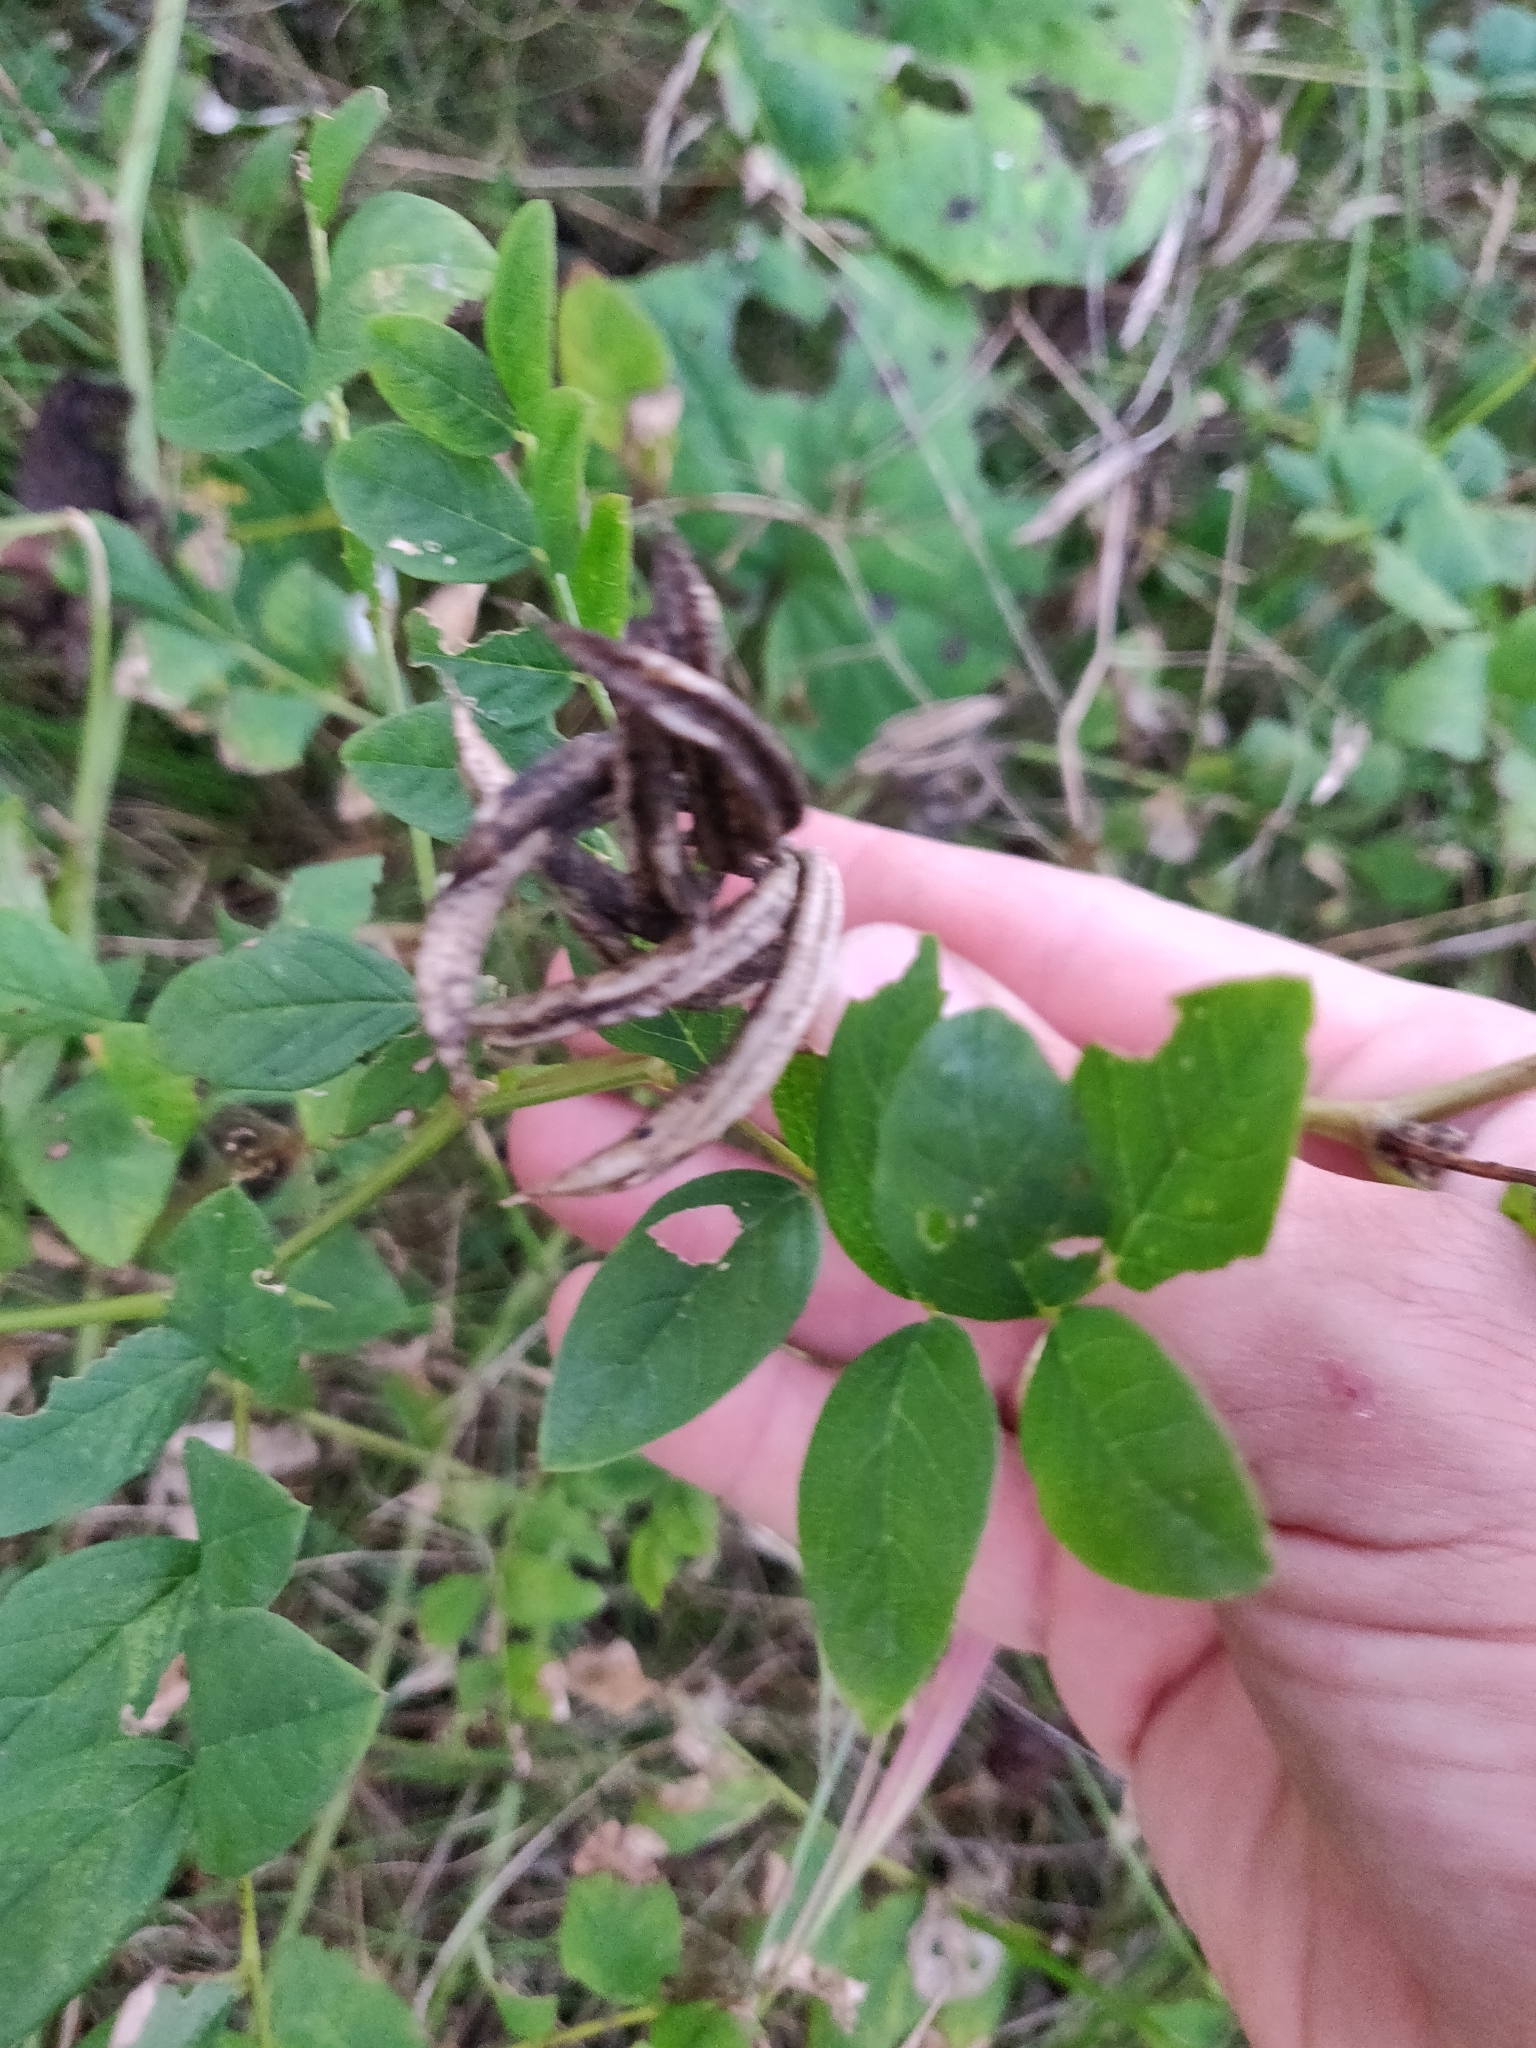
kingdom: Plantae
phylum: Tracheophyta
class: Magnoliopsida
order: Fabales
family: Fabaceae
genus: Astragalus
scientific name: Astragalus glycyphyllos
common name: Wild liquorice
